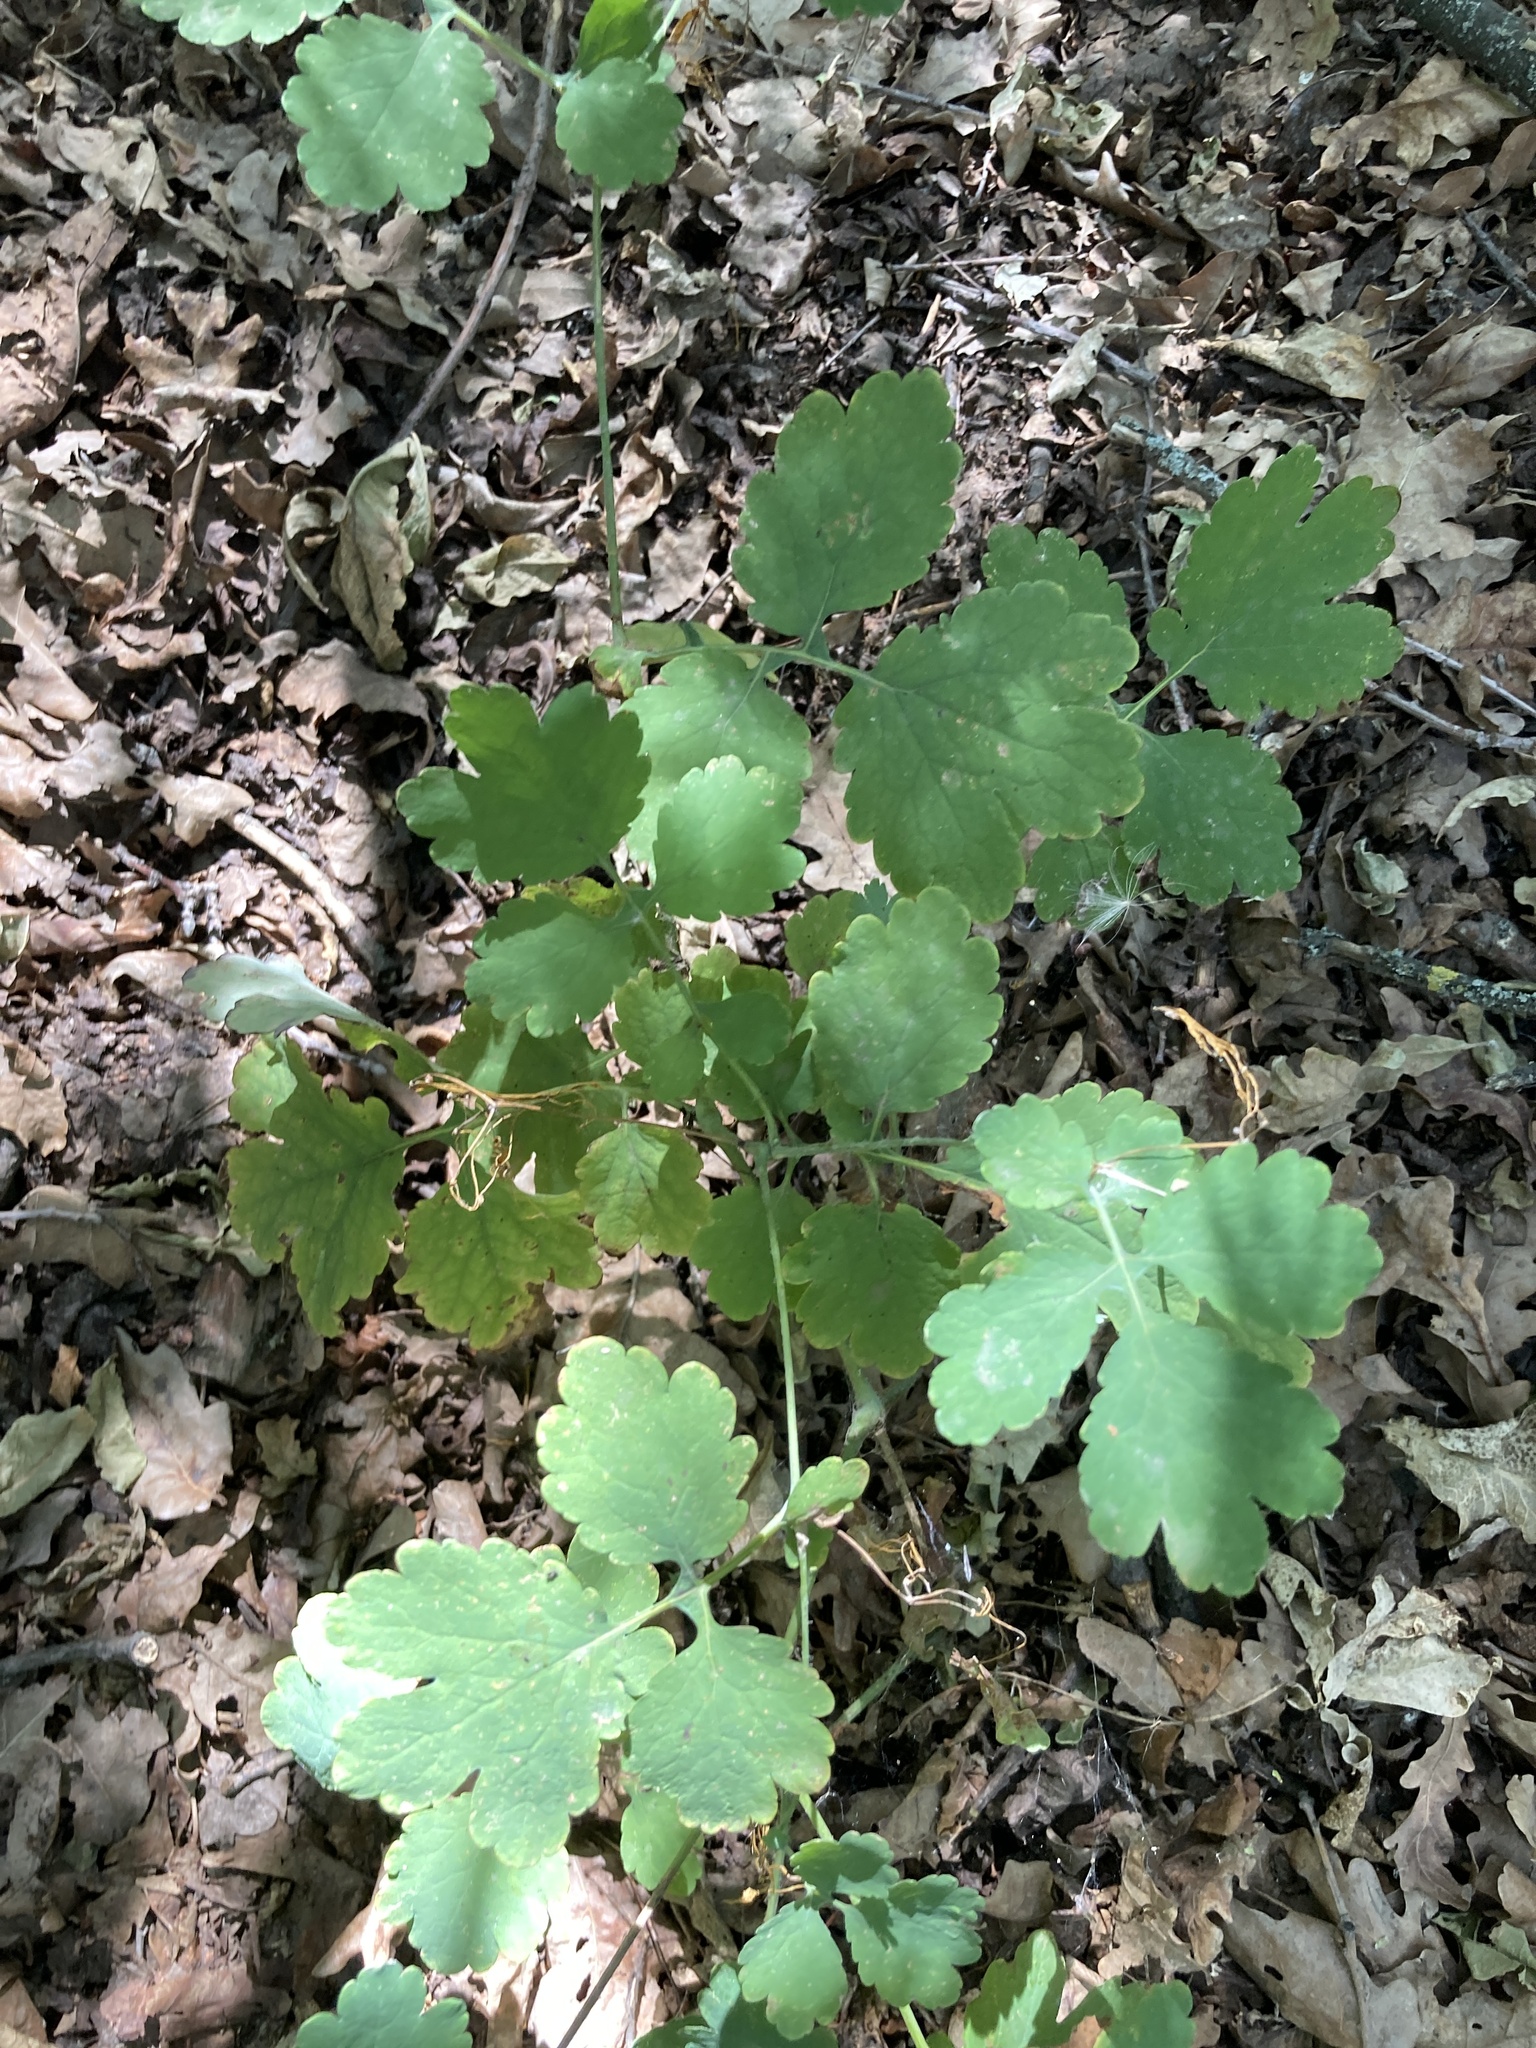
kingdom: Plantae
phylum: Tracheophyta
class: Magnoliopsida
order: Ranunculales
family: Papaveraceae
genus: Chelidonium
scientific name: Chelidonium majus
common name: Greater celandine
